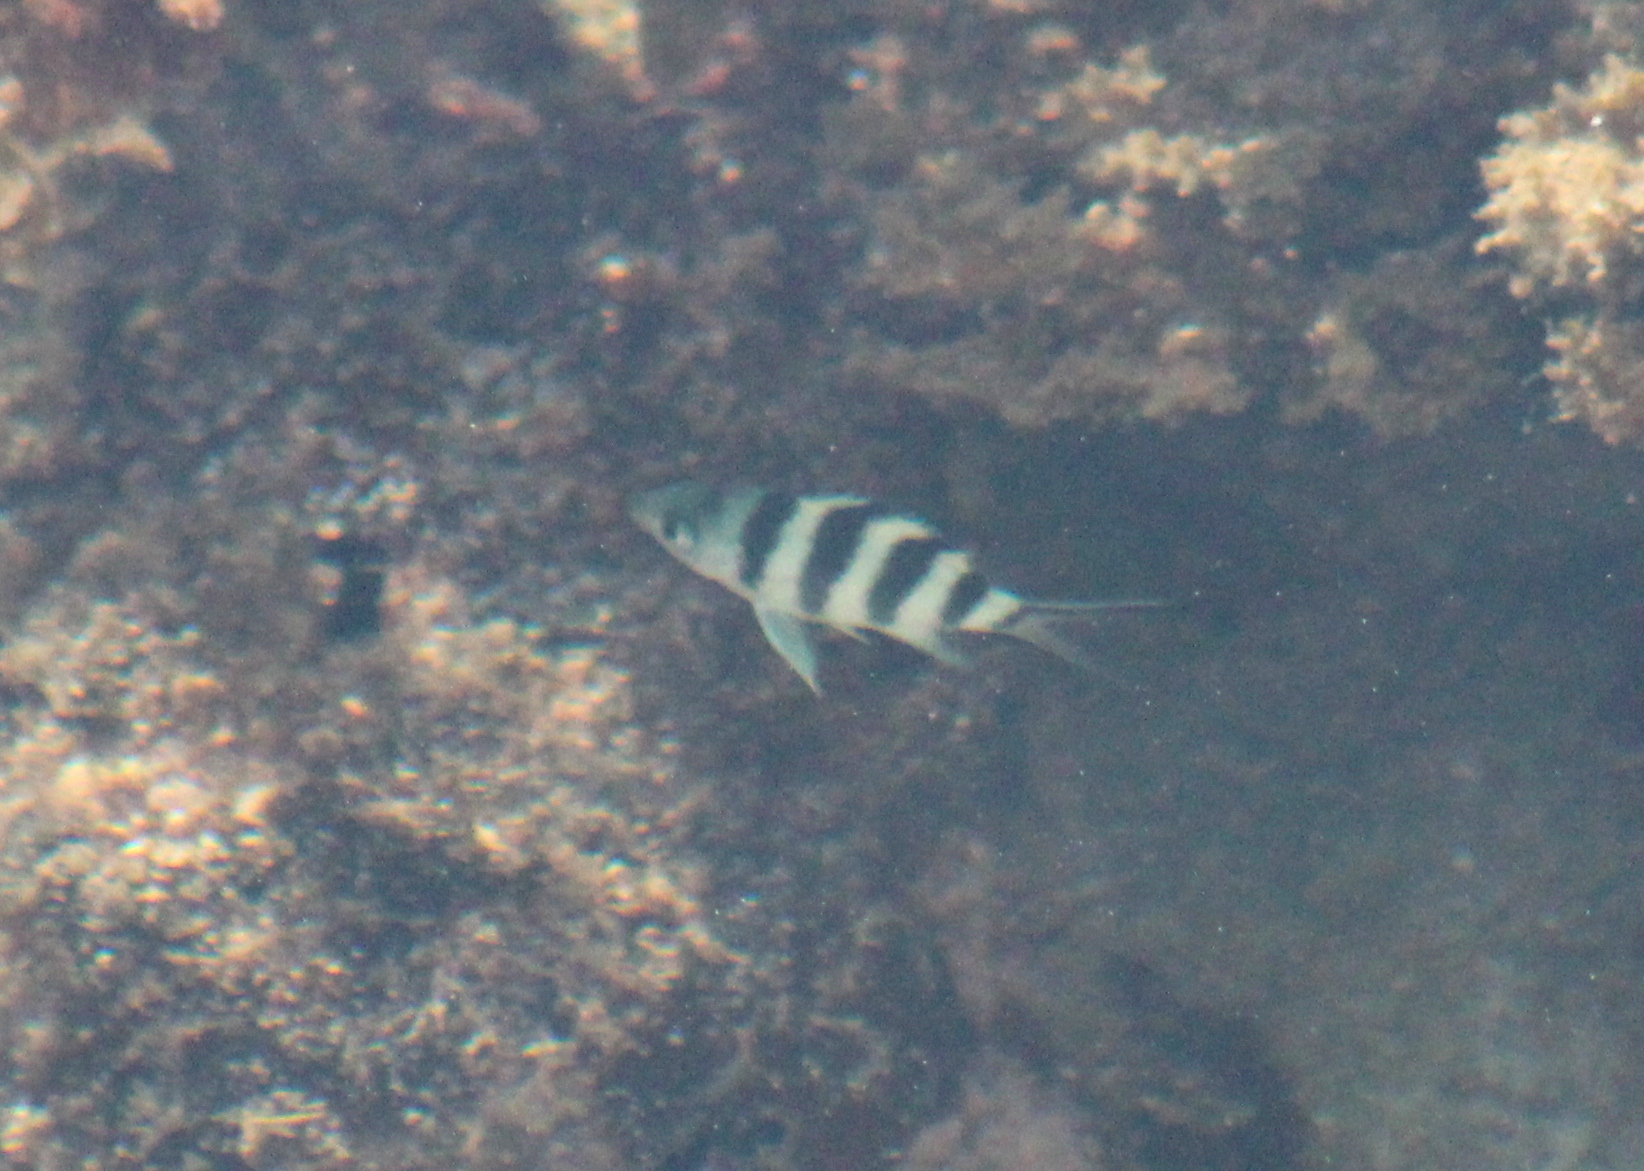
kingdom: Animalia
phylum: Chordata
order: Perciformes
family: Pomacentridae
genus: Abudefduf
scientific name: Abudefduf sexfasciatus
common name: Scissortail sergeant
